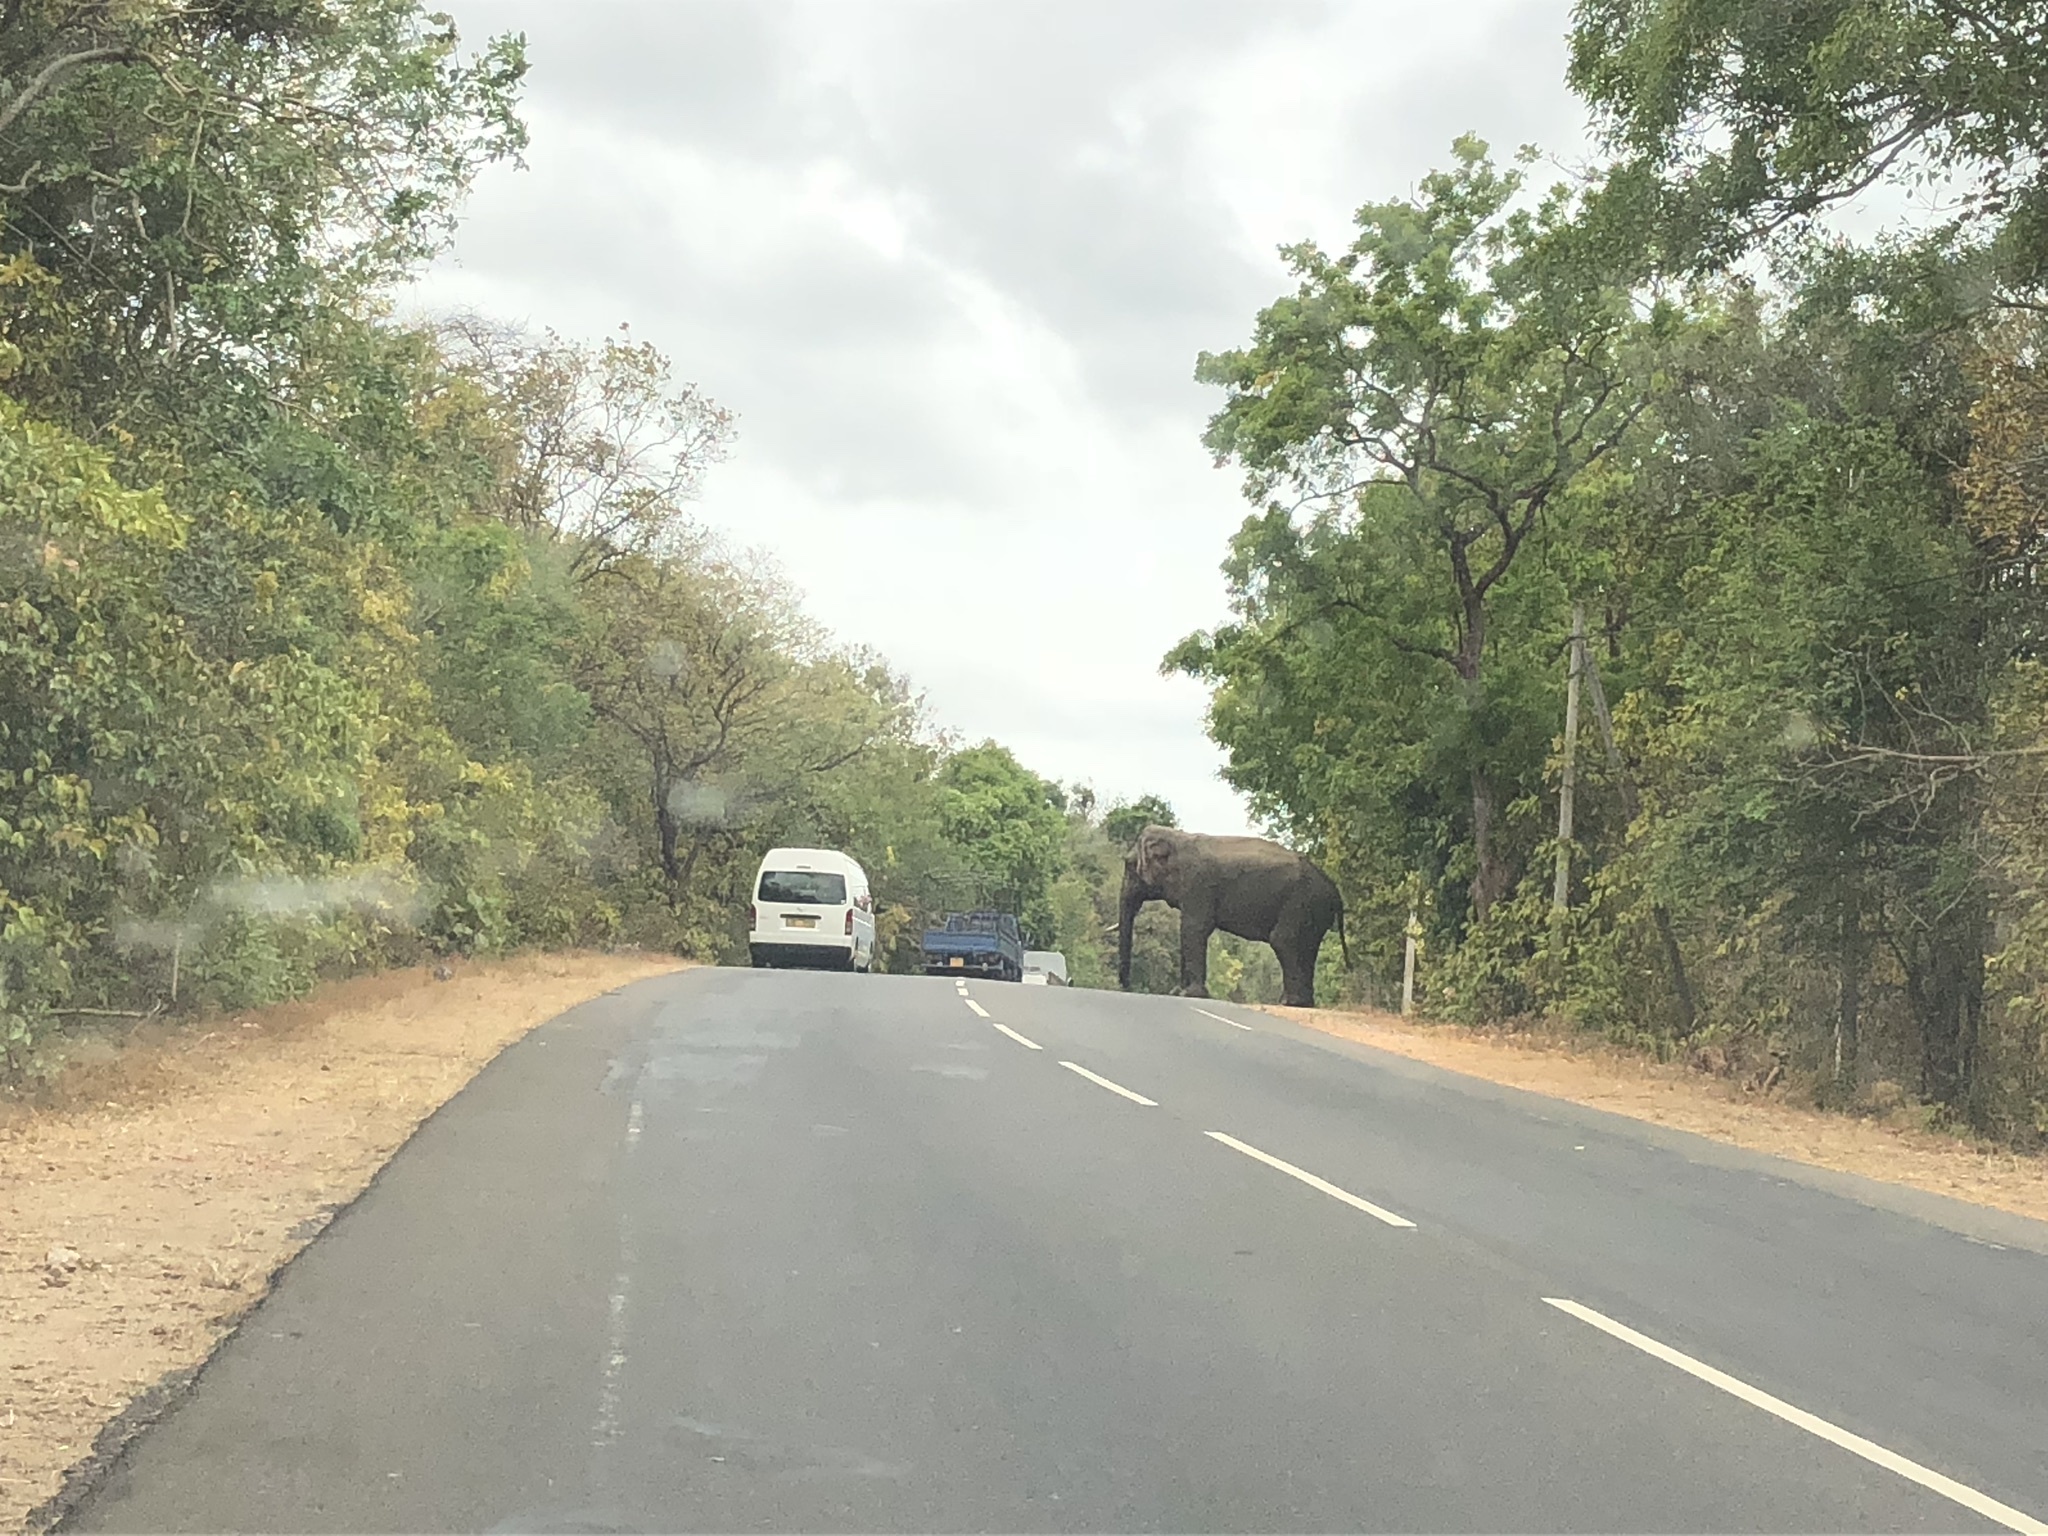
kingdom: Animalia
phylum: Chordata
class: Mammalia
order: Proboscidea
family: Elephantidae
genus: Elephas
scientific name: Elephas maximus
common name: Asian elephant
